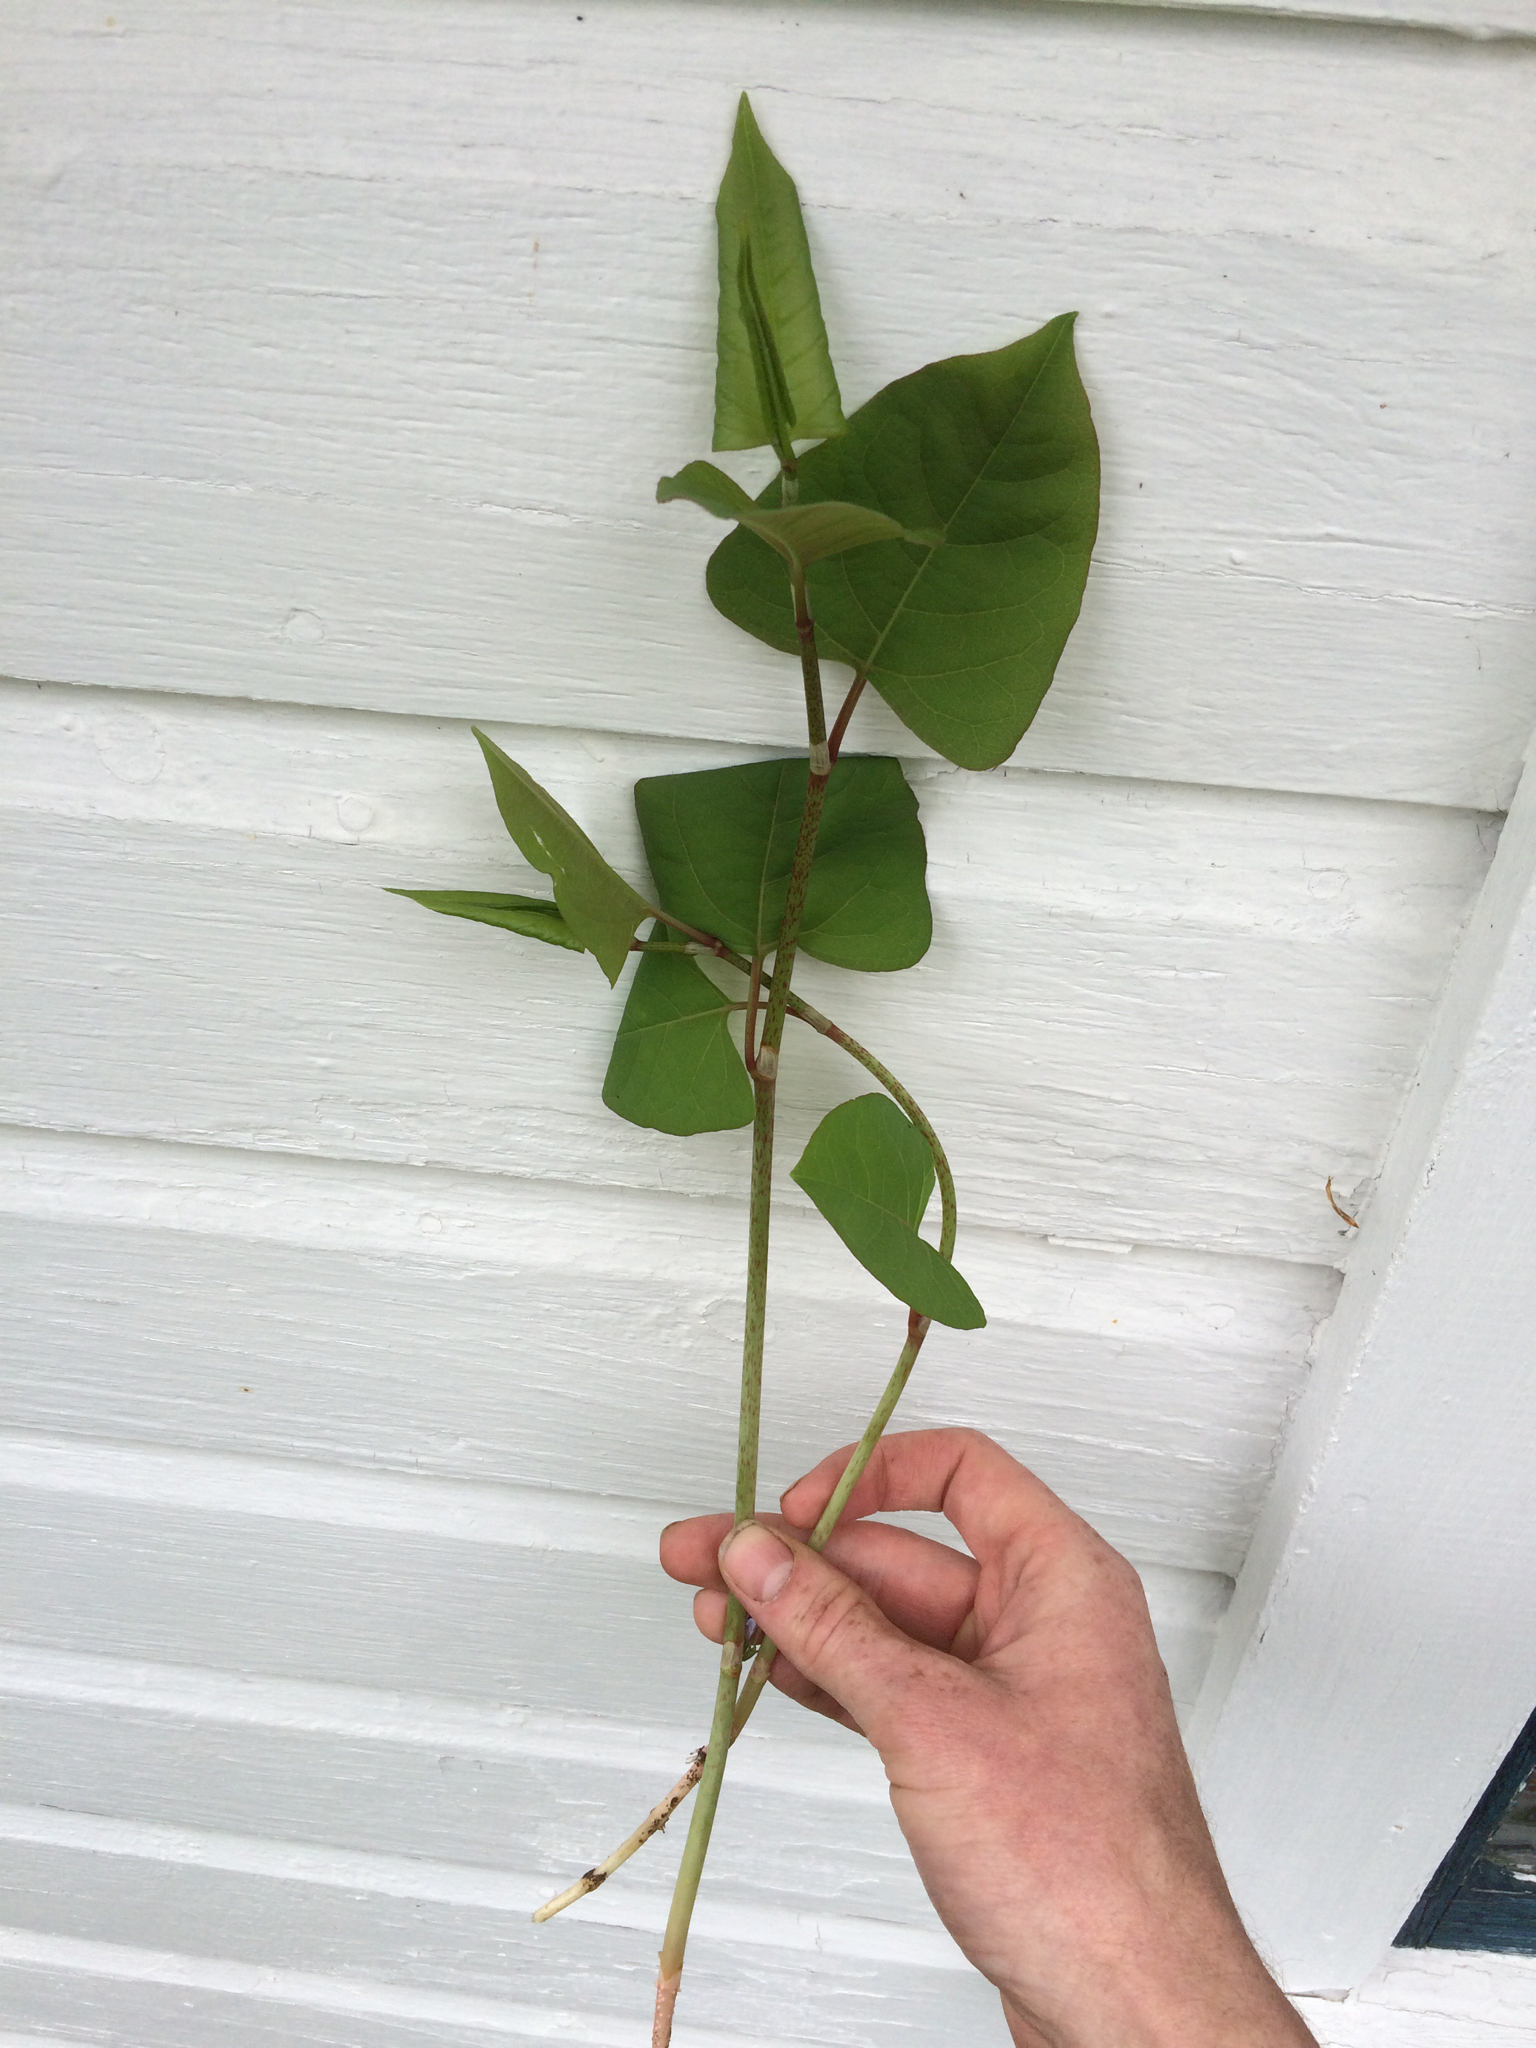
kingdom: Plantae
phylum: Tracheophyta
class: Magnoliopsida
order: Caryophyllales
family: Polygonaceae
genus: Reynoutria
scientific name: Reynoutria japonica
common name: Japanese knotweed
